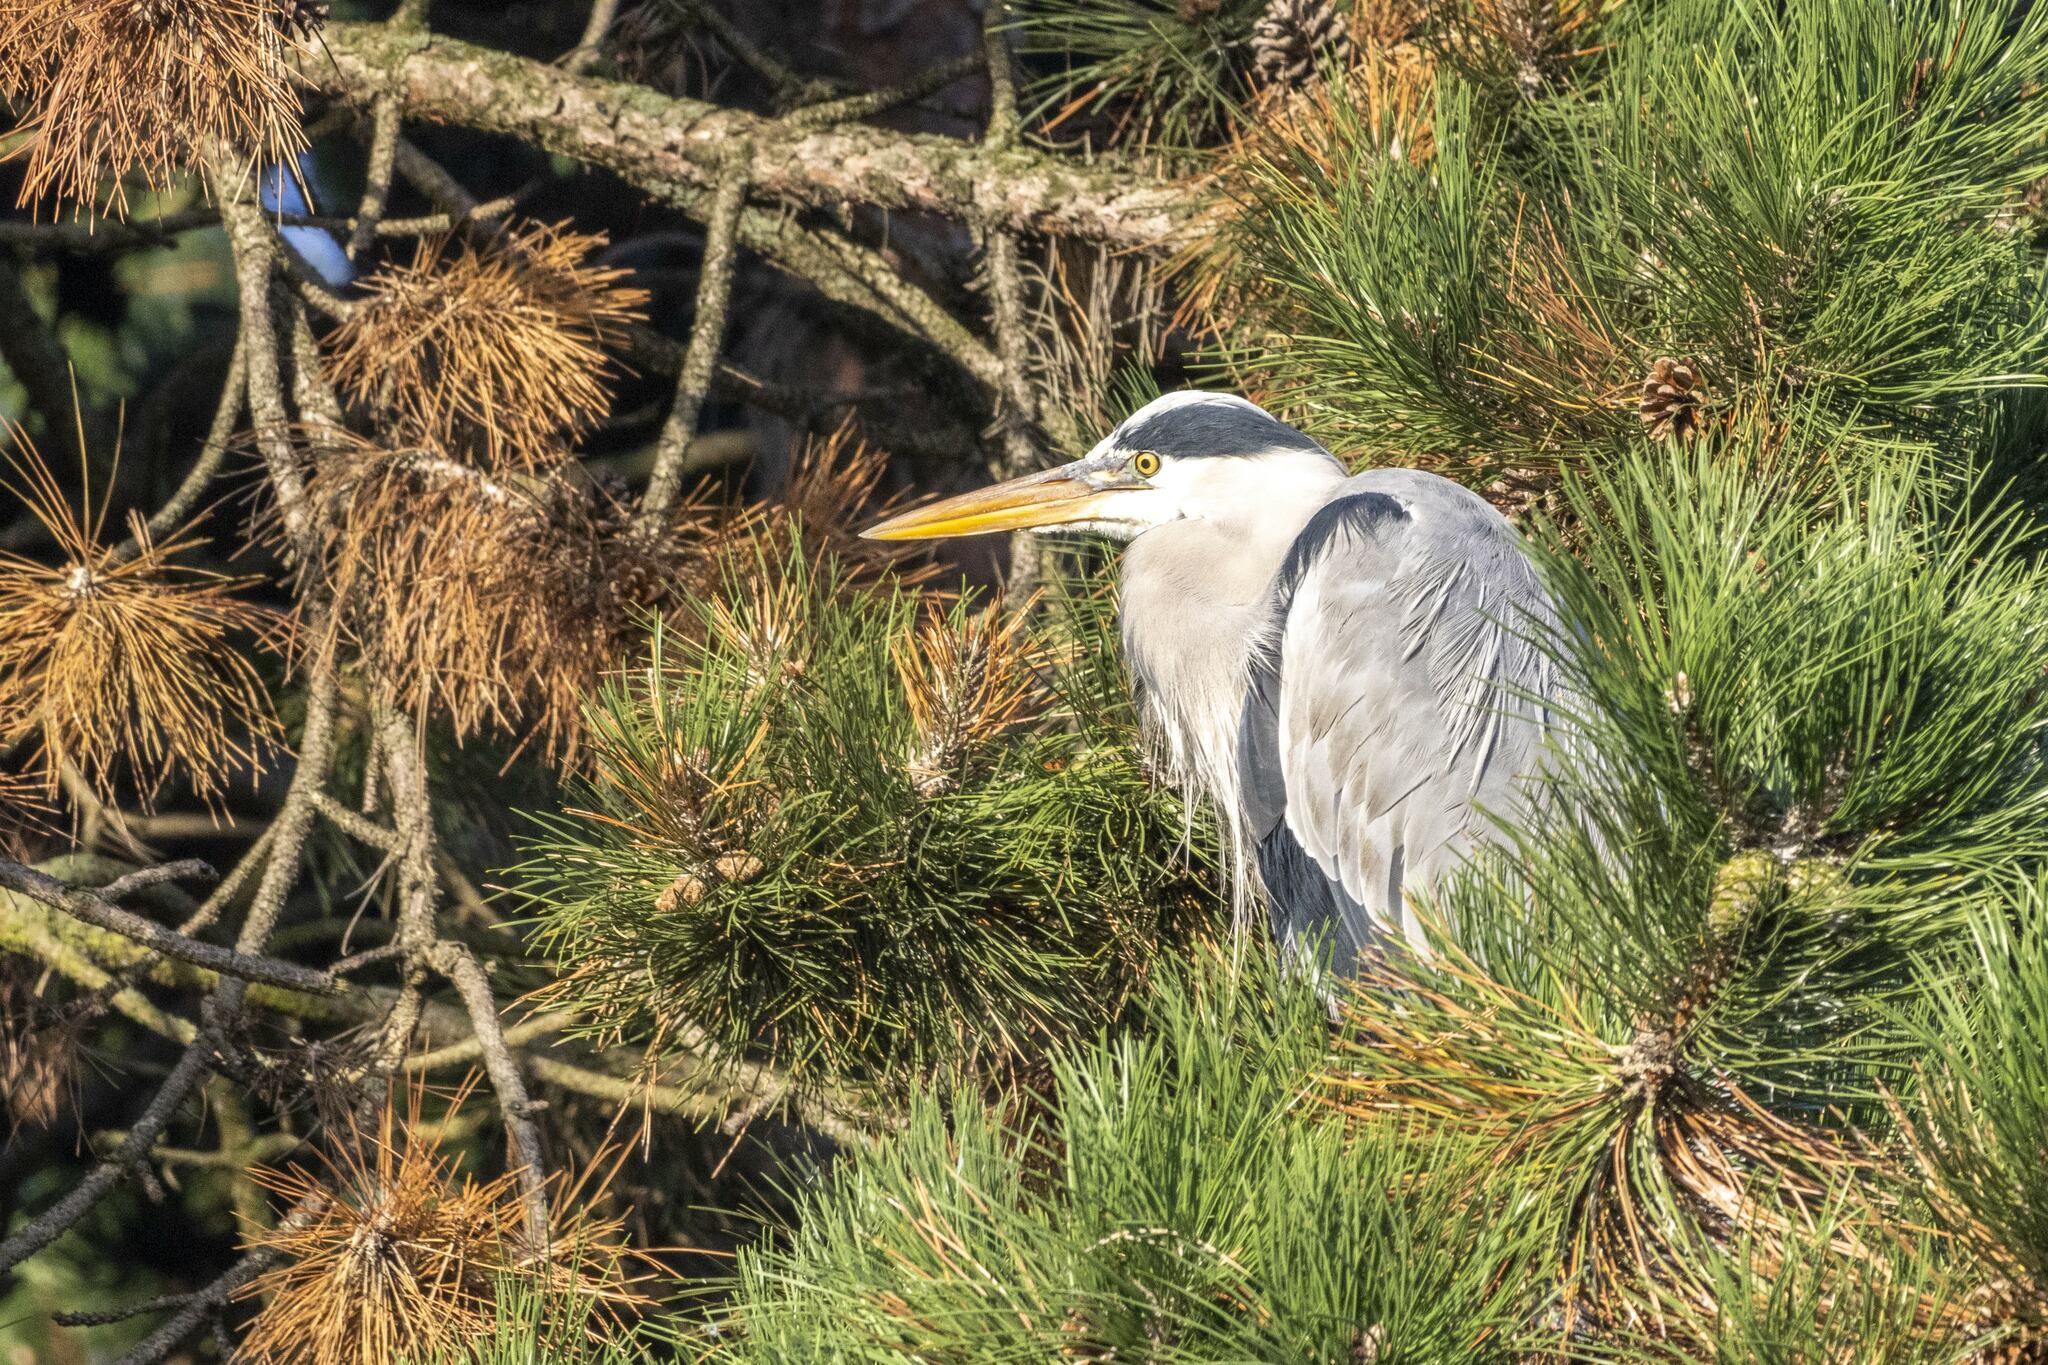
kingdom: Animalia
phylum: Chordata
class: Aves
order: Pelecaniformes
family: Ardeidae
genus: Ardea
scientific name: Ardea cinerea
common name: Grey heron
